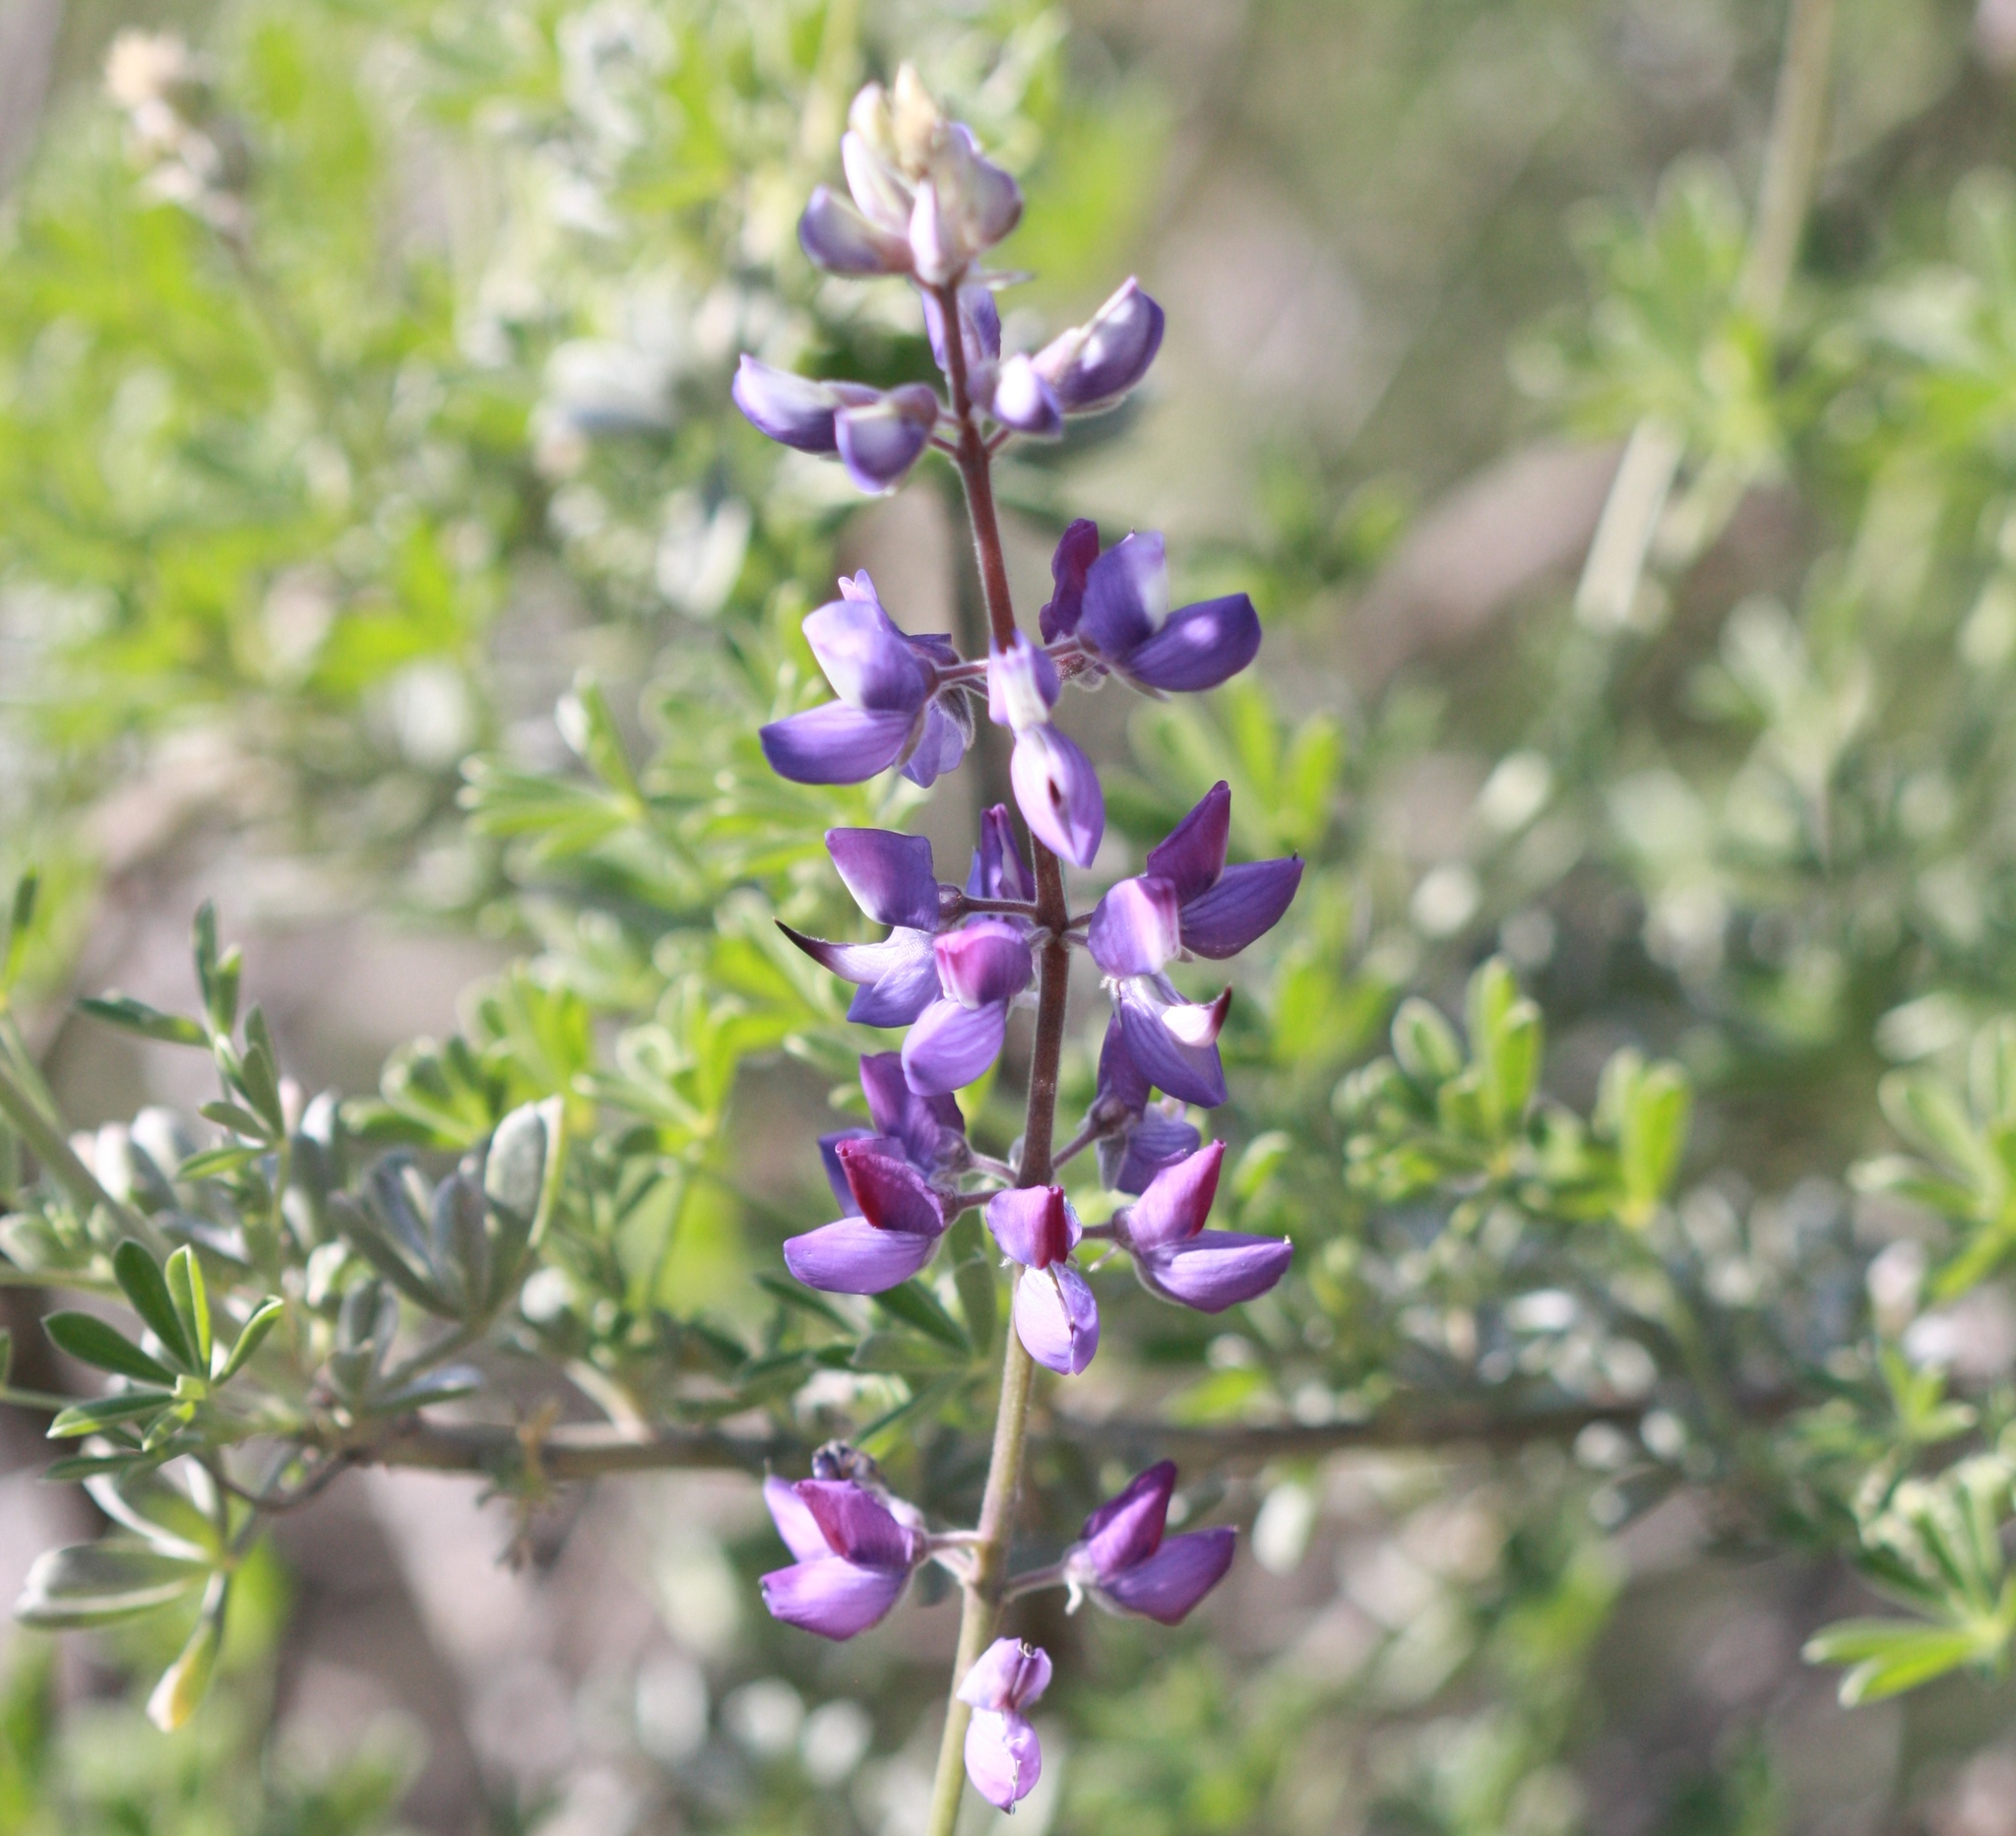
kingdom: Plantae
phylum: Tracheophyta
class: Magnoliopsida
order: Fabales
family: Fabaceae
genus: Lupinus
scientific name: Lupinus albifrons
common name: Foothill lupine
